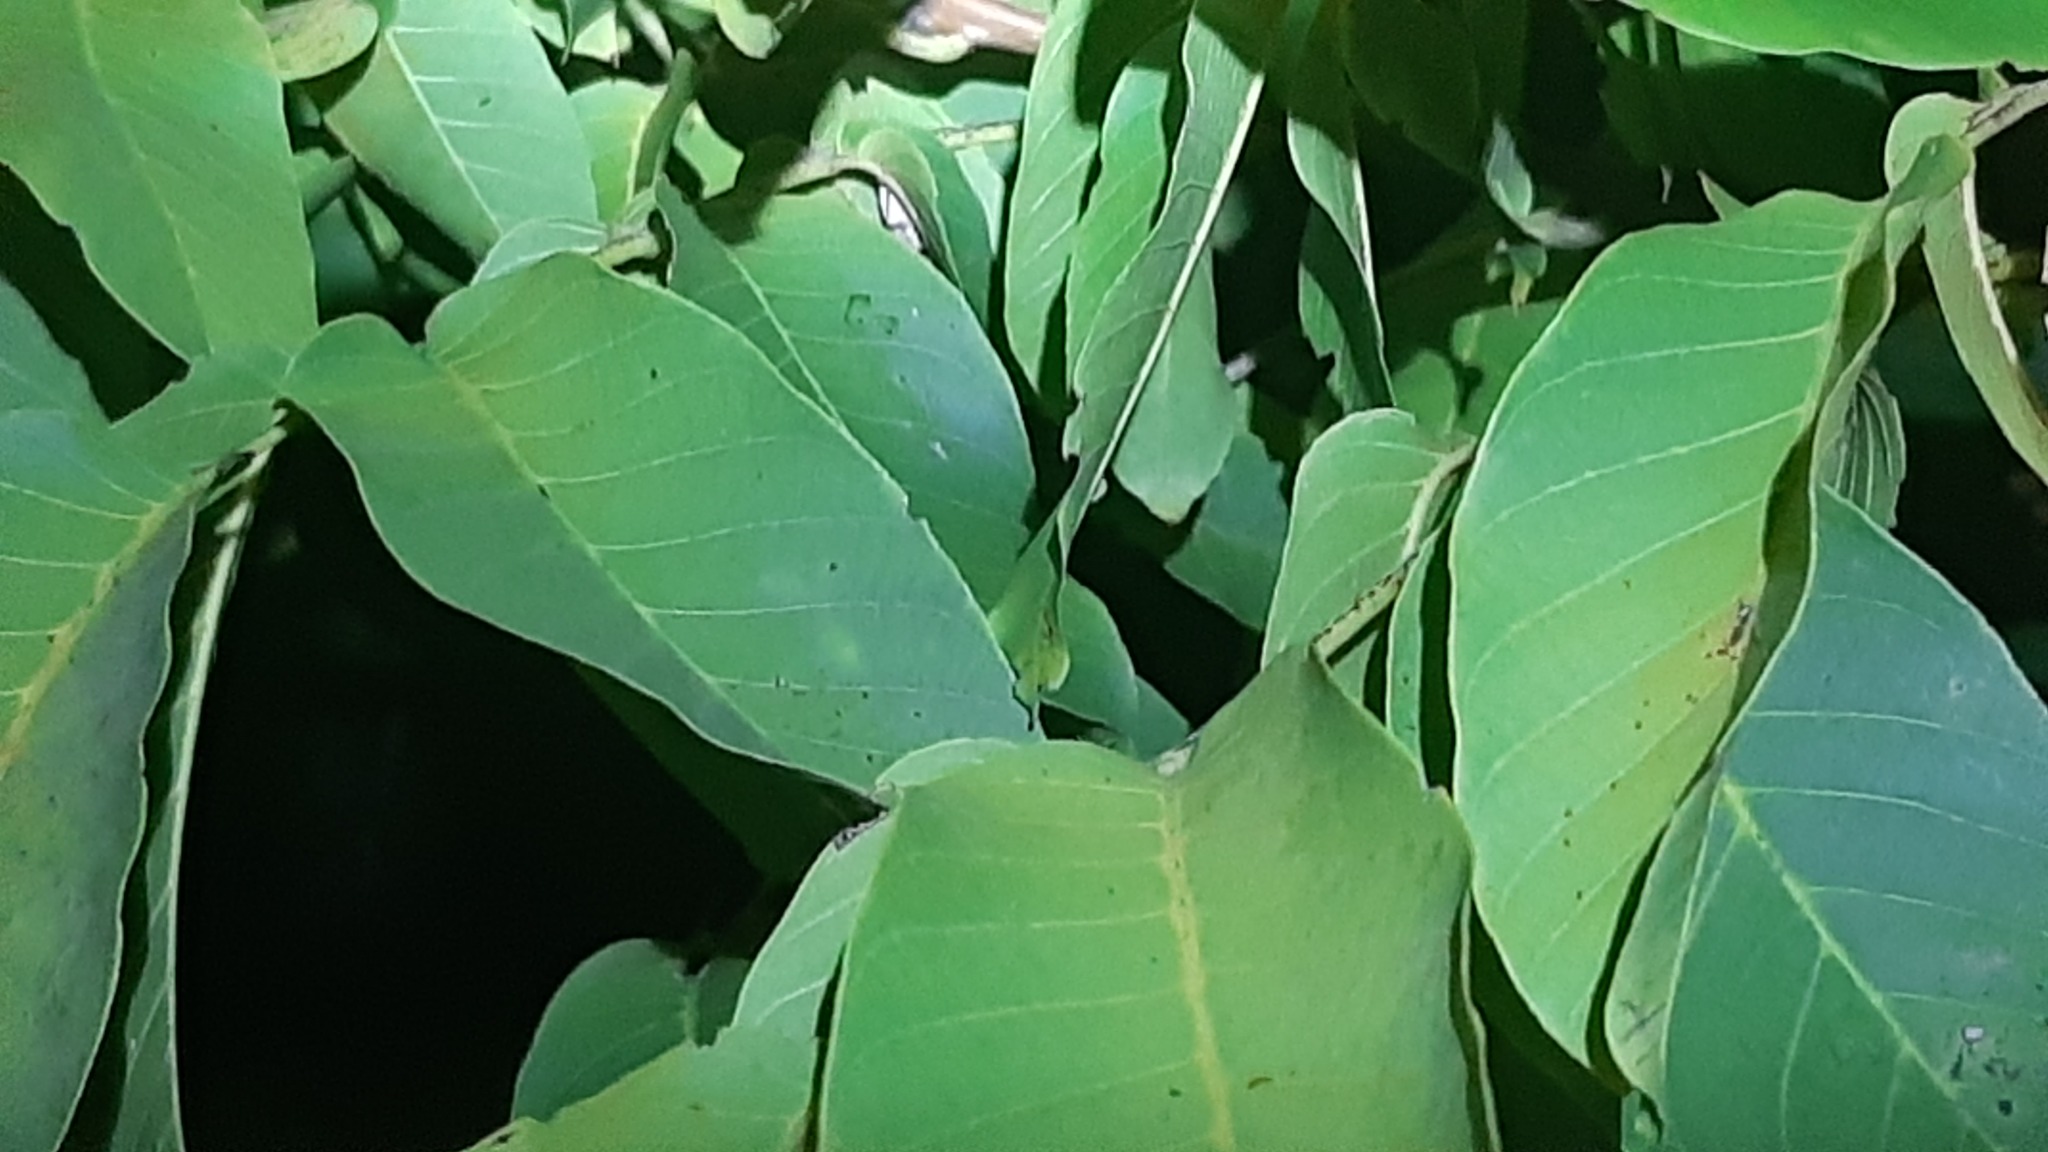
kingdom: Plantae
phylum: Tracheophyta
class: Magnoliopsida
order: Fagales
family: Juglandaceae
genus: Juglans
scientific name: Juglans regia
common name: Walnut
